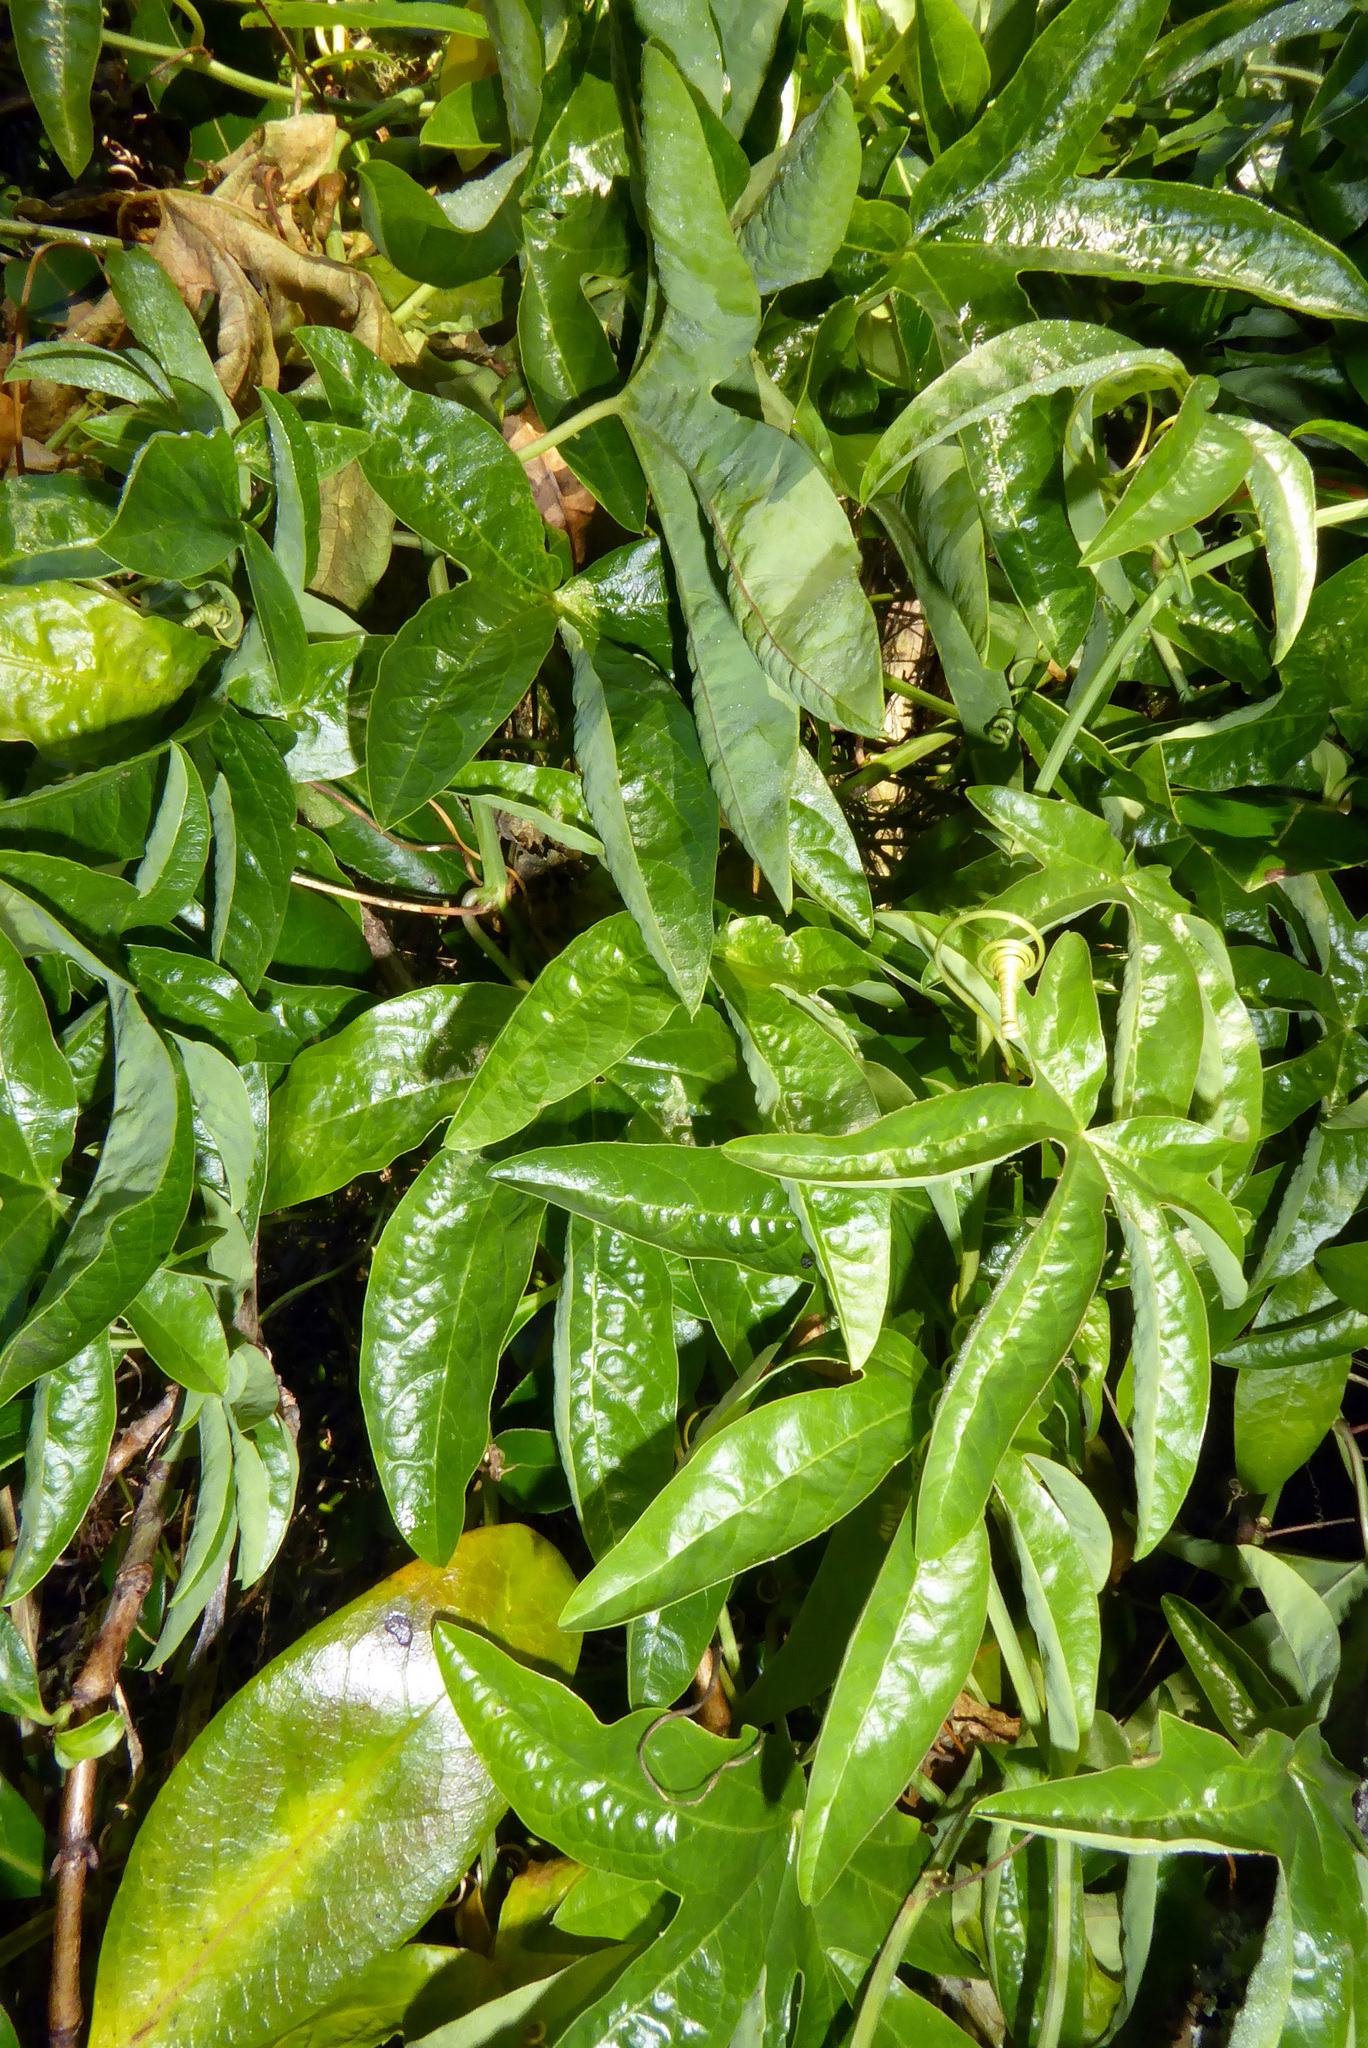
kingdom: Plantae
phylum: Tracheophyta
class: Magnoliopsida
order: Malpighiales
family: Passifloraceae
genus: Passiflora
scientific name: Passiflora caerulea
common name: Blue passionflower
